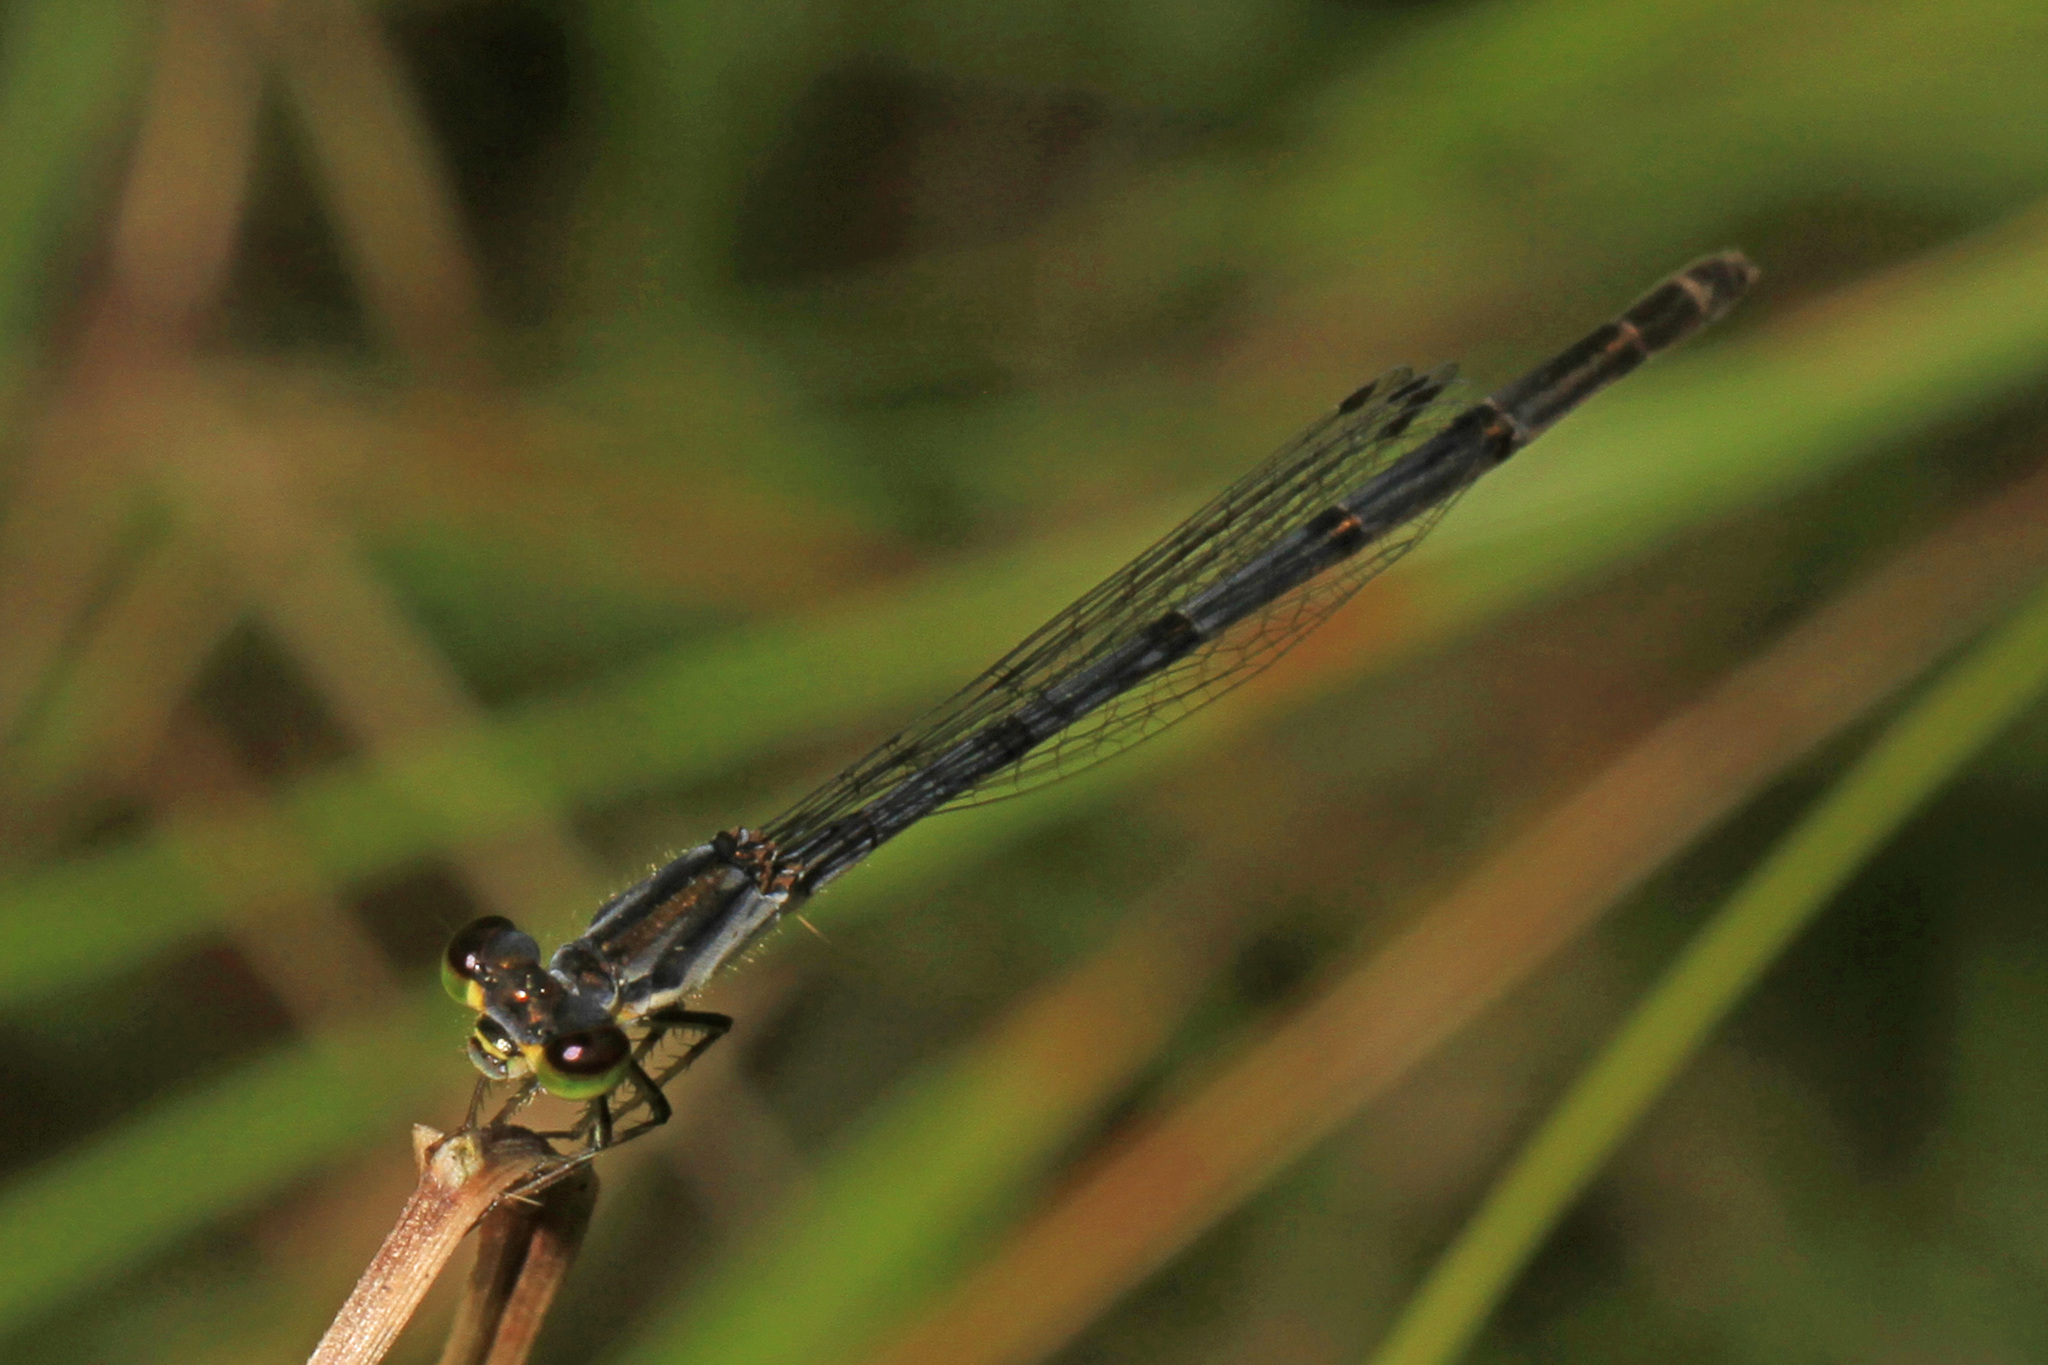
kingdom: Animalia
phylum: Arthropoda
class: Insecta
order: Odonata
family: Coenagrionidae
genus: Ischnura
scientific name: Ischnura posita
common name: Fragile forktail
